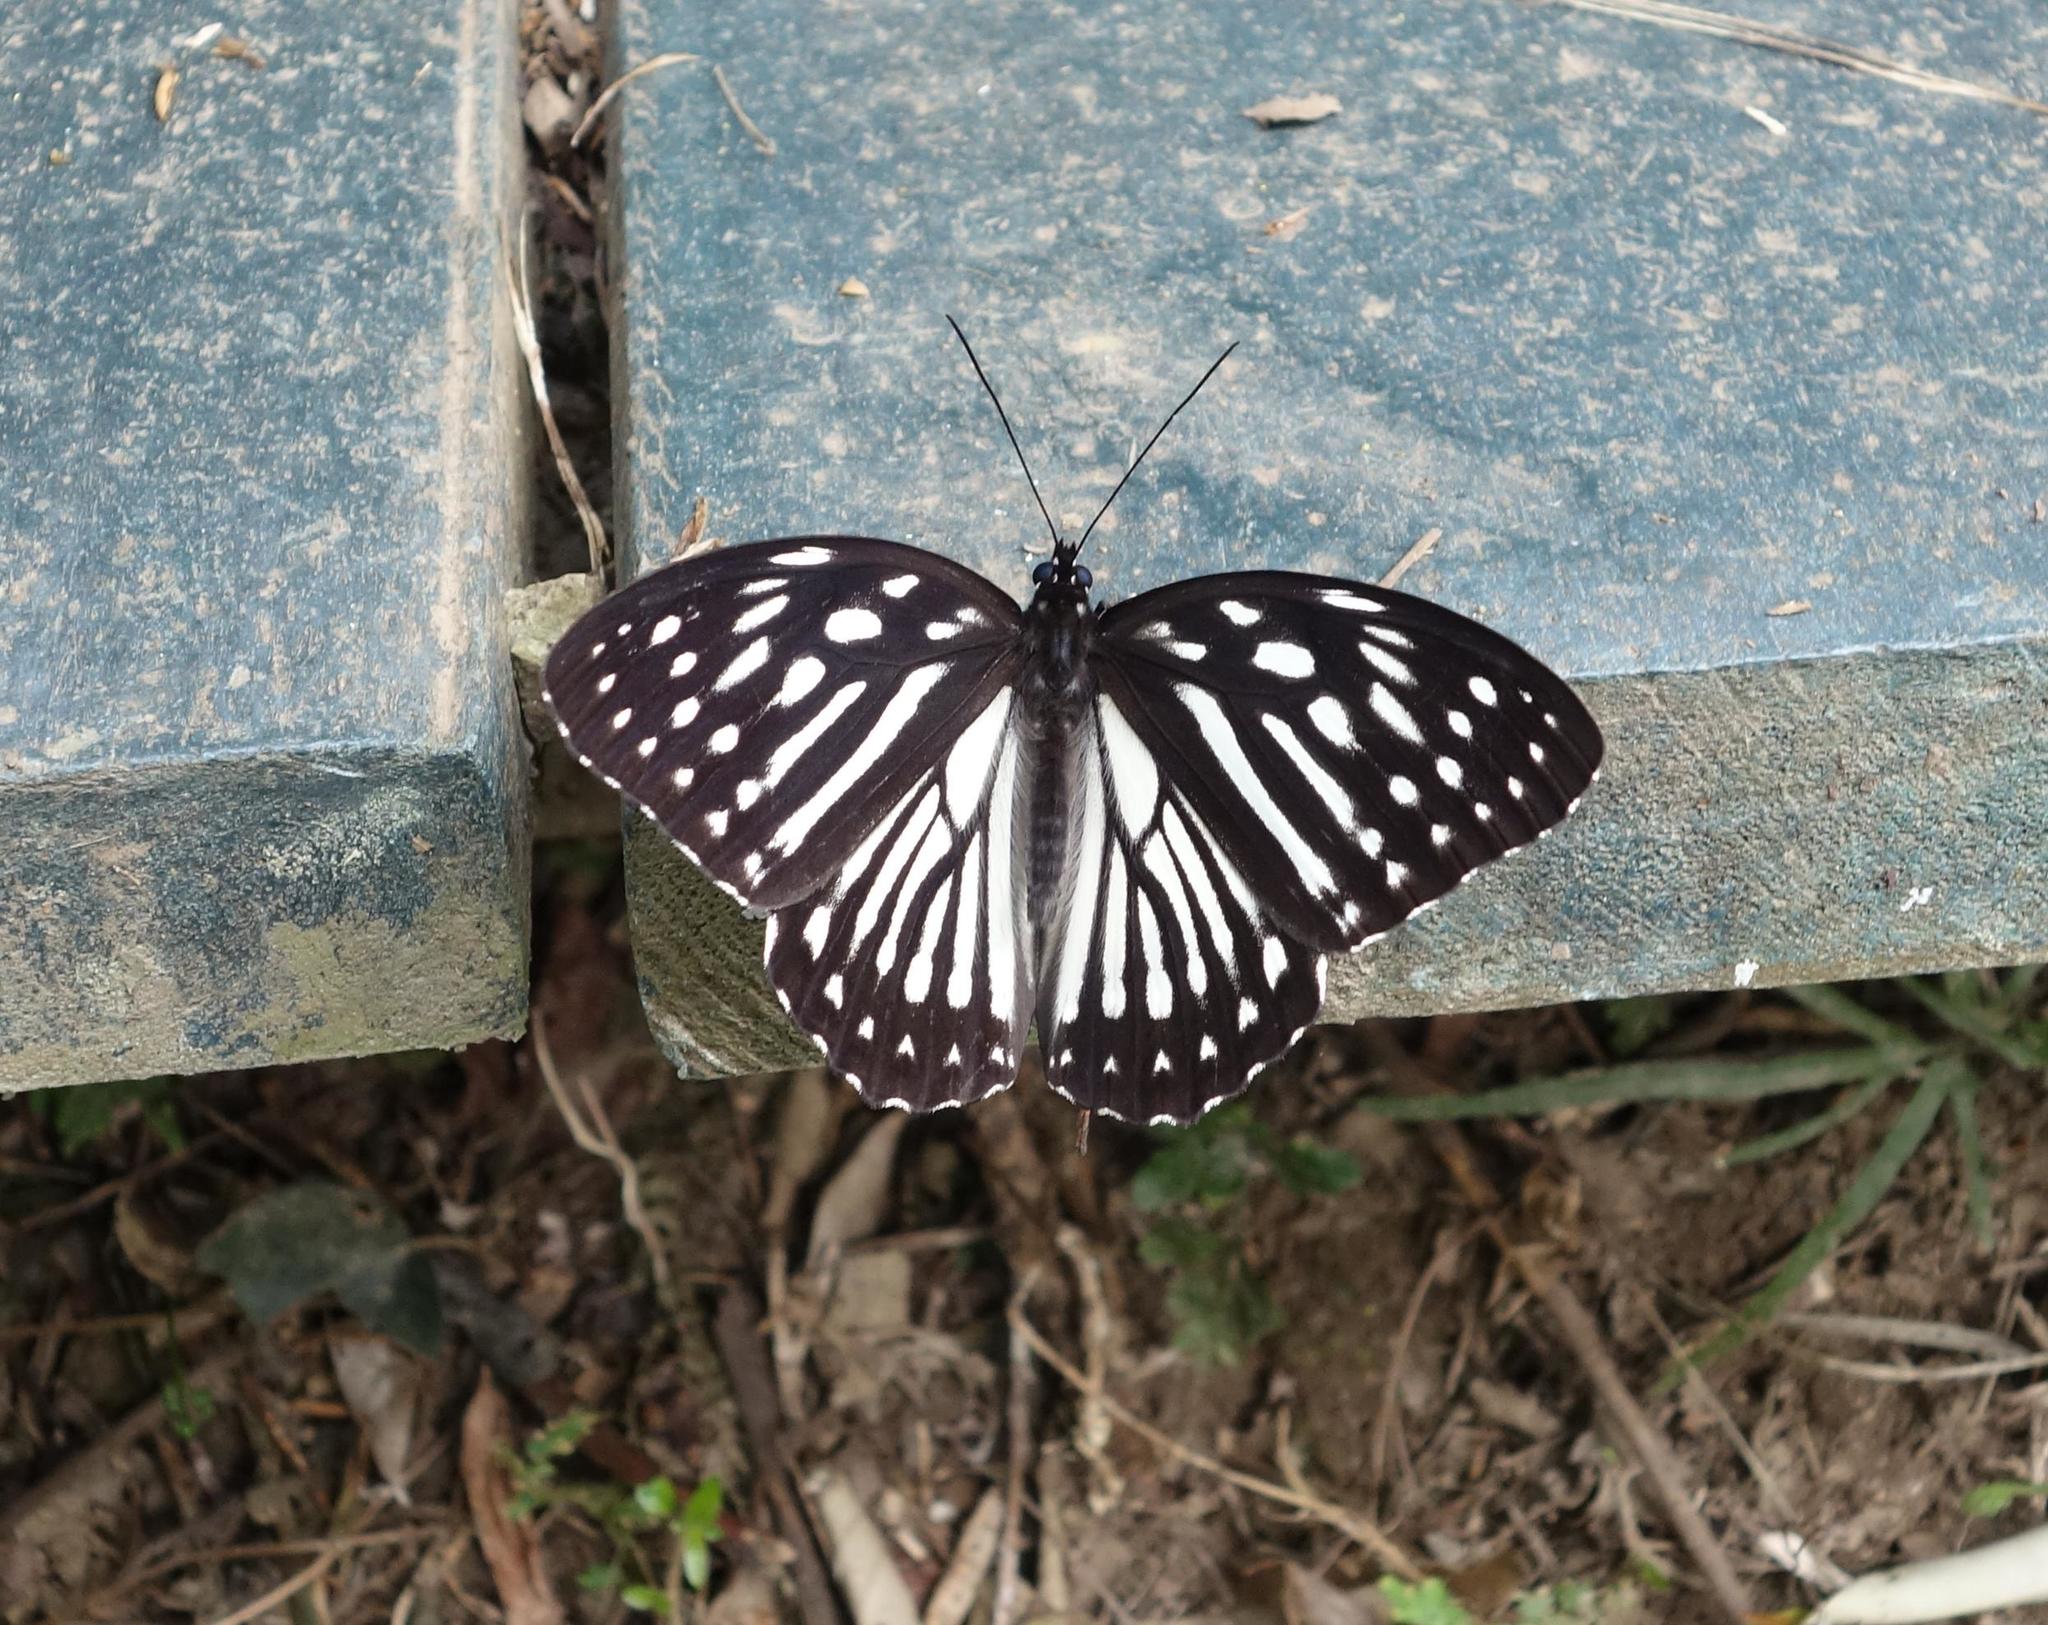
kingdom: Animalia
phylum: Arthropoda
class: Insecta
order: Lepidoptera
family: Nymphalidae
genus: Penthema
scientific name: Penthema formosanum
